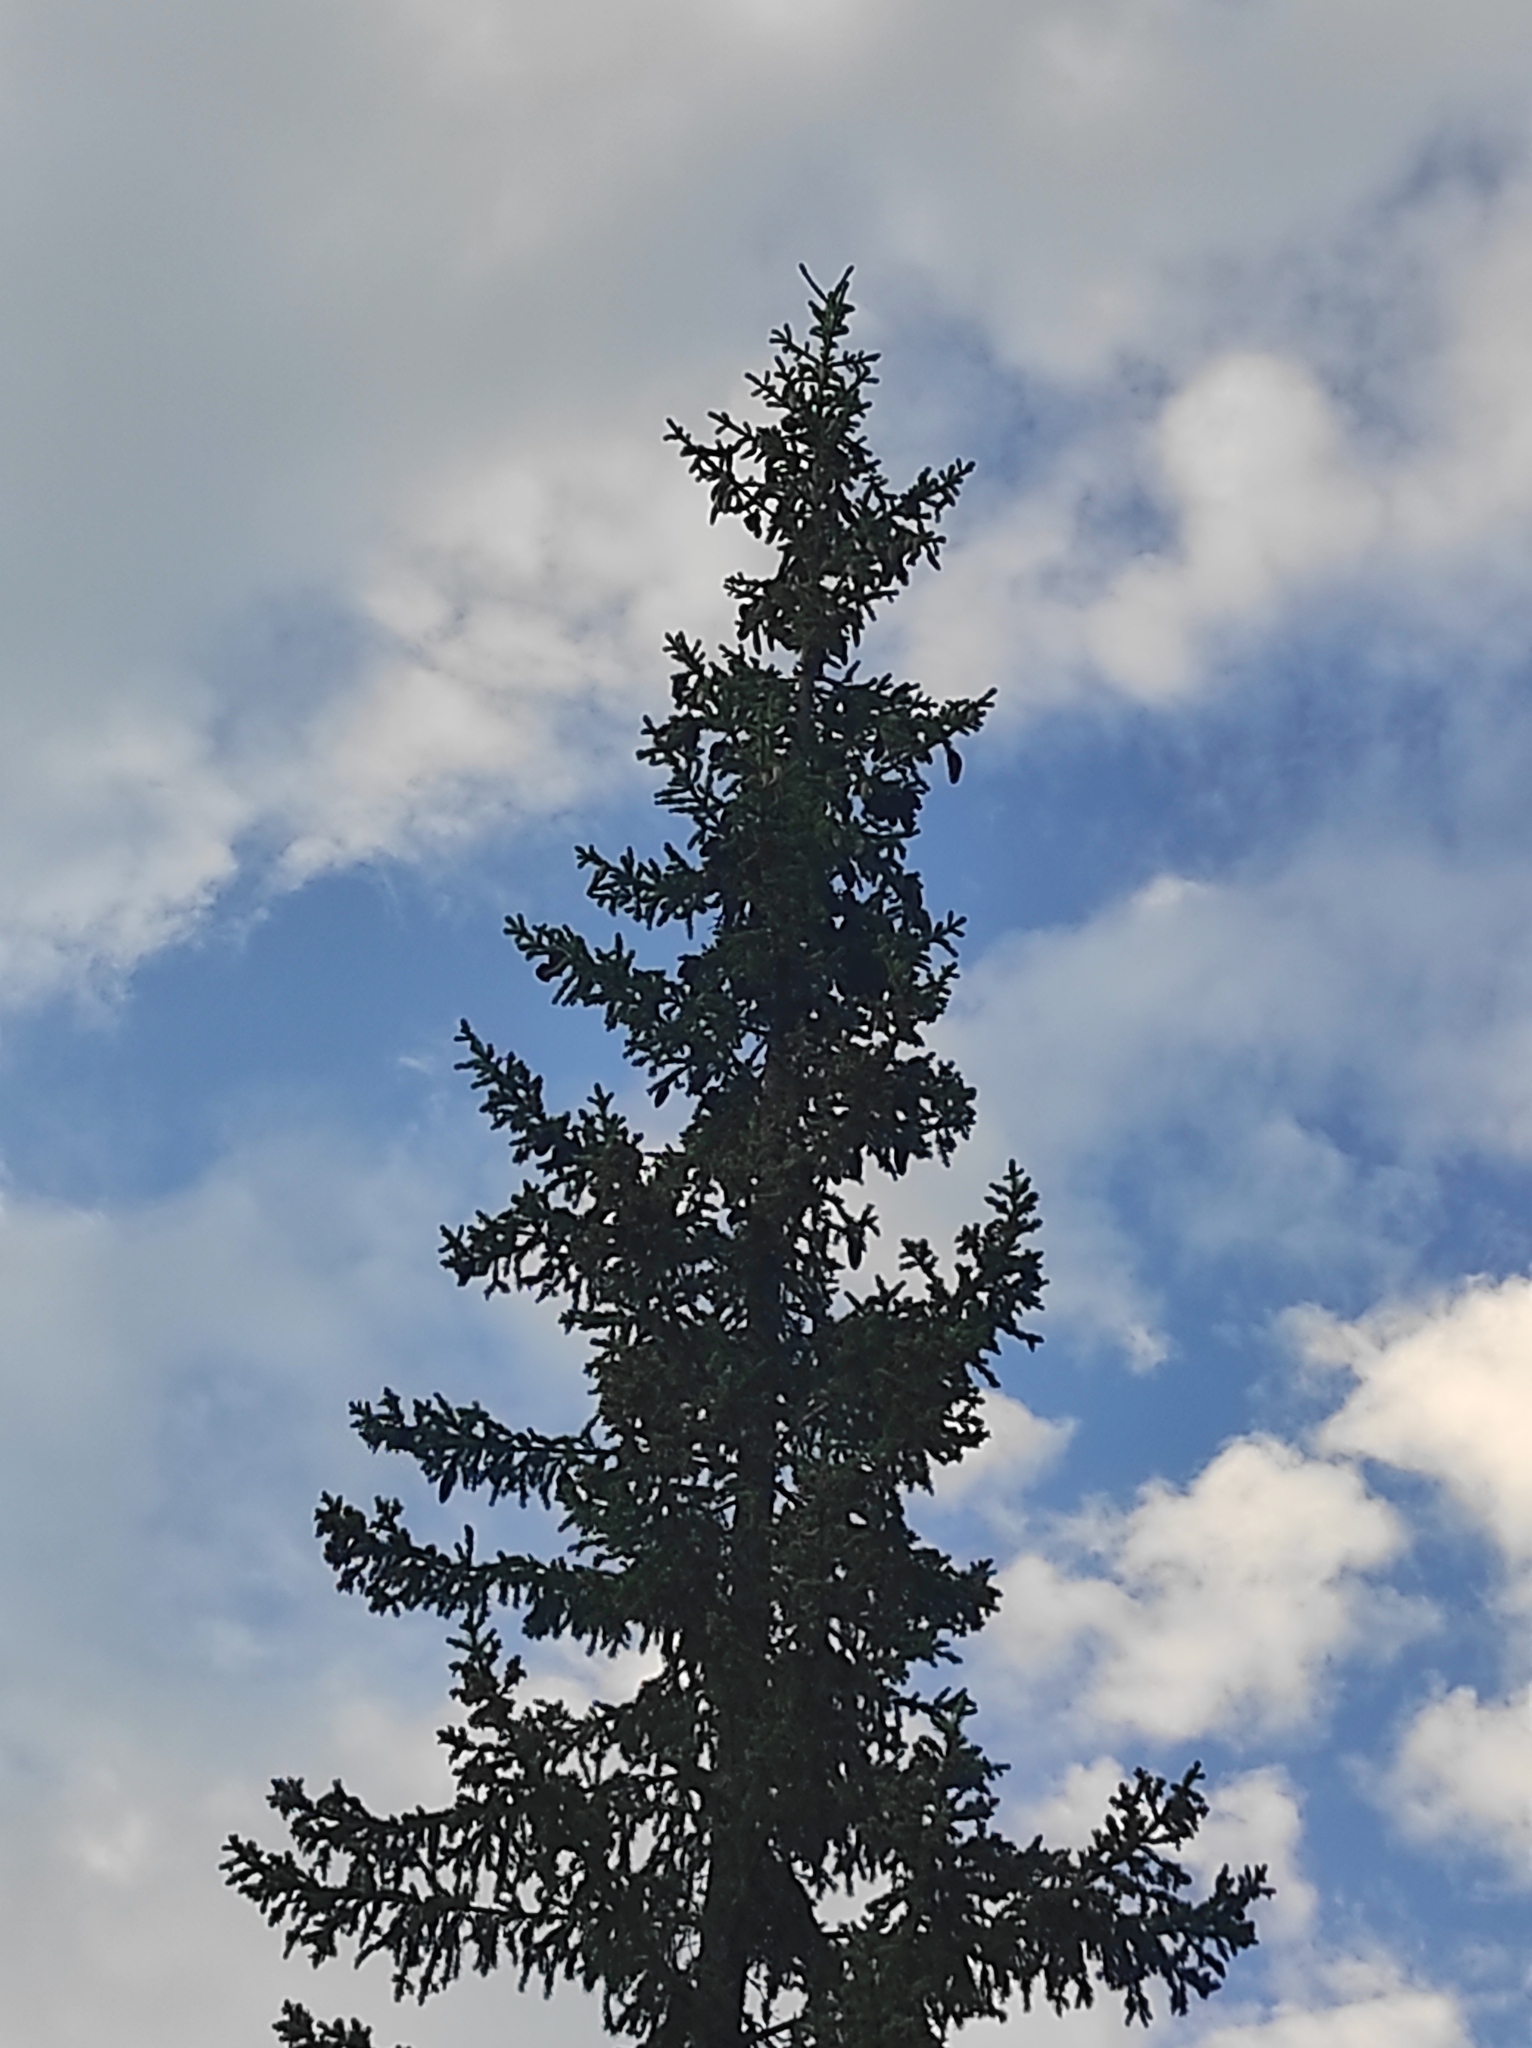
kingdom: Plantae
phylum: Tracheophyta
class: Pinopsida
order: Pinales
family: Pinaceae
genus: Picea
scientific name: Picea obovata
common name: Siberian spruce
